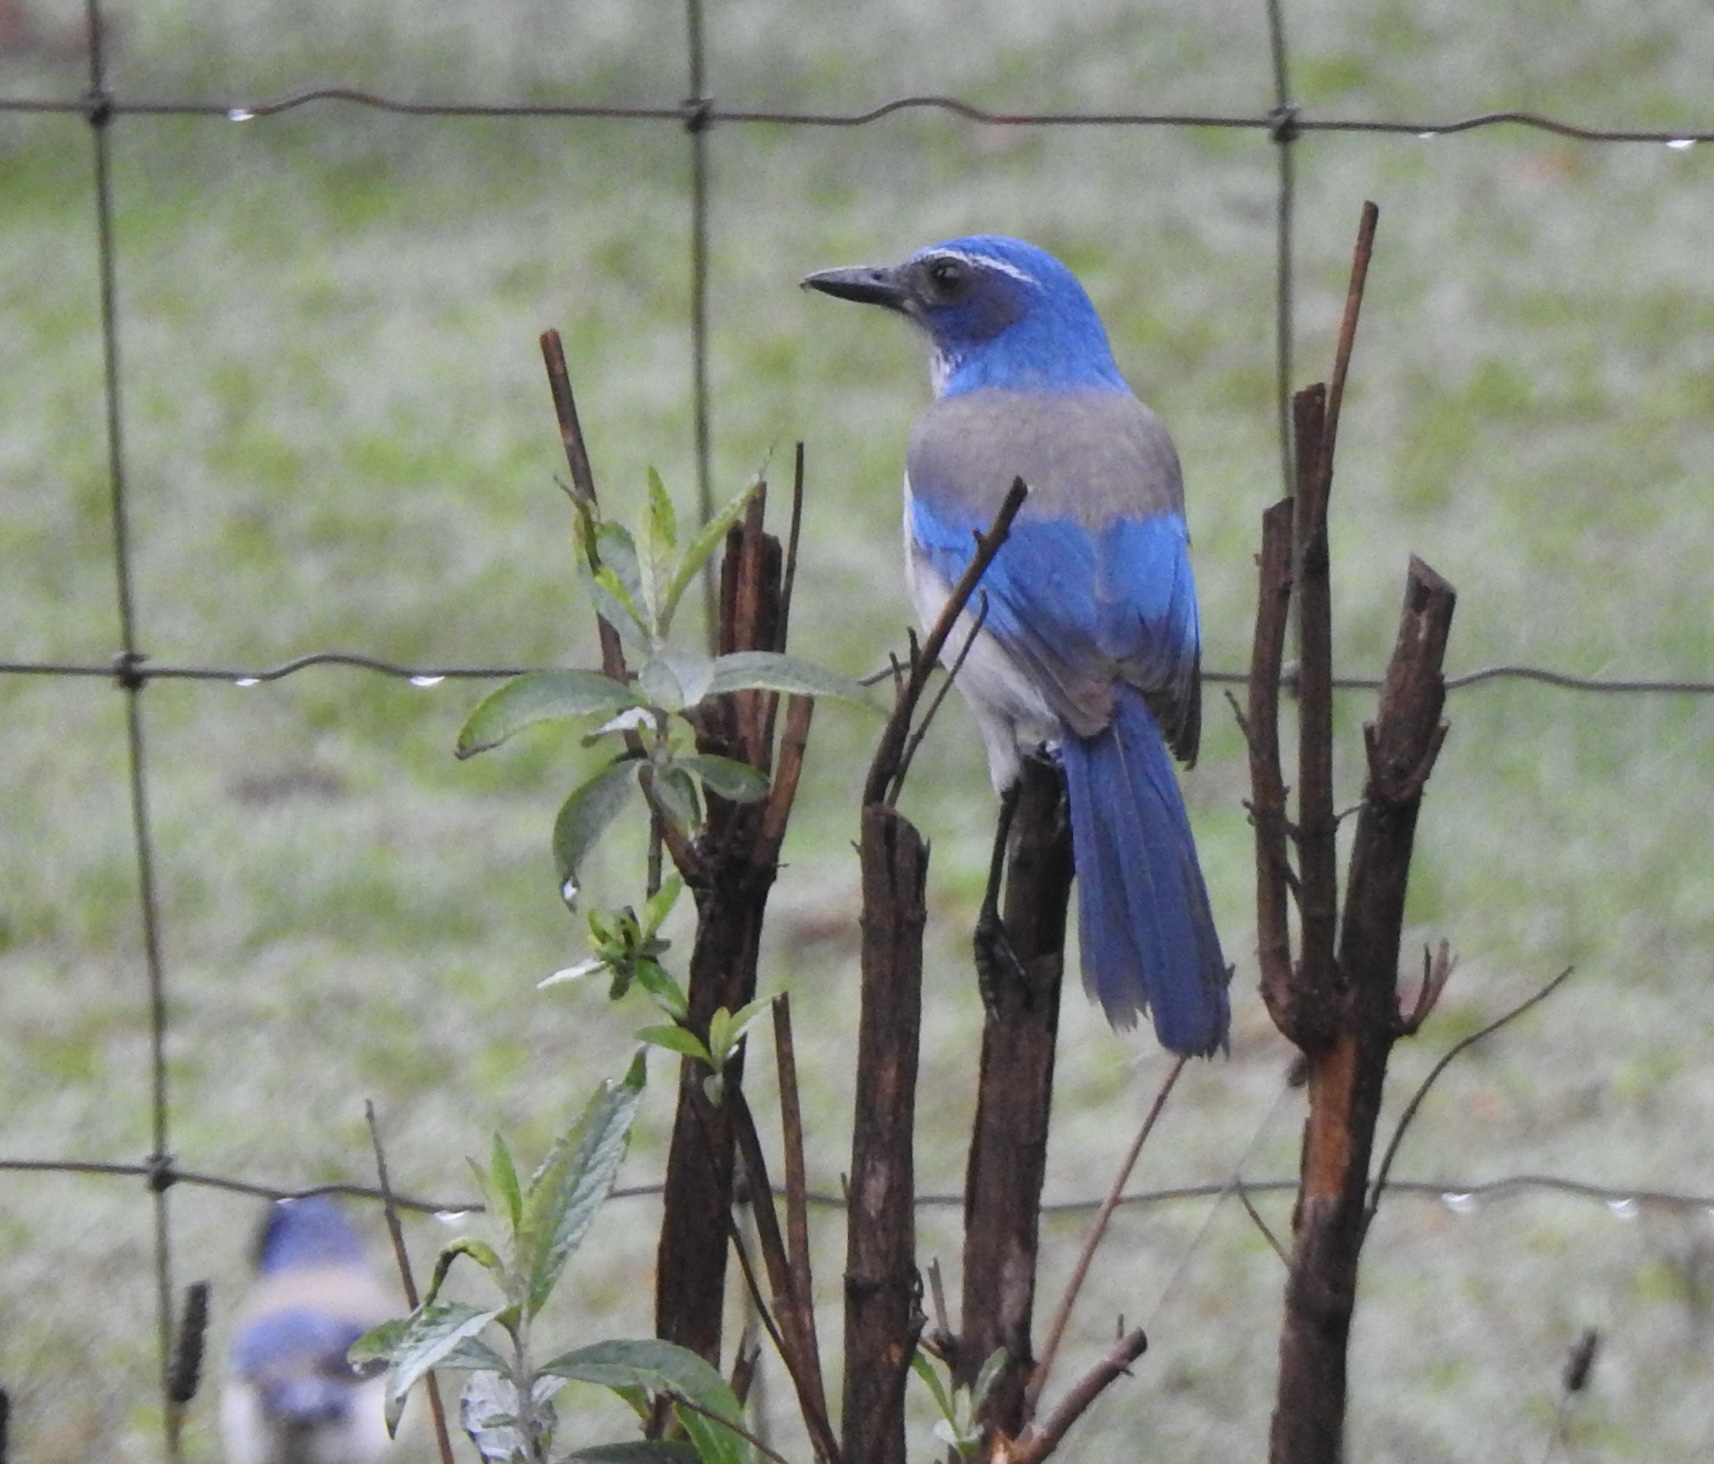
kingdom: Animalia
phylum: Chordata
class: Aves
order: Passeriformes
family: Corvidae
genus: Aphelocoma
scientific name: Aphelocoma californica
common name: California scrub-jay
